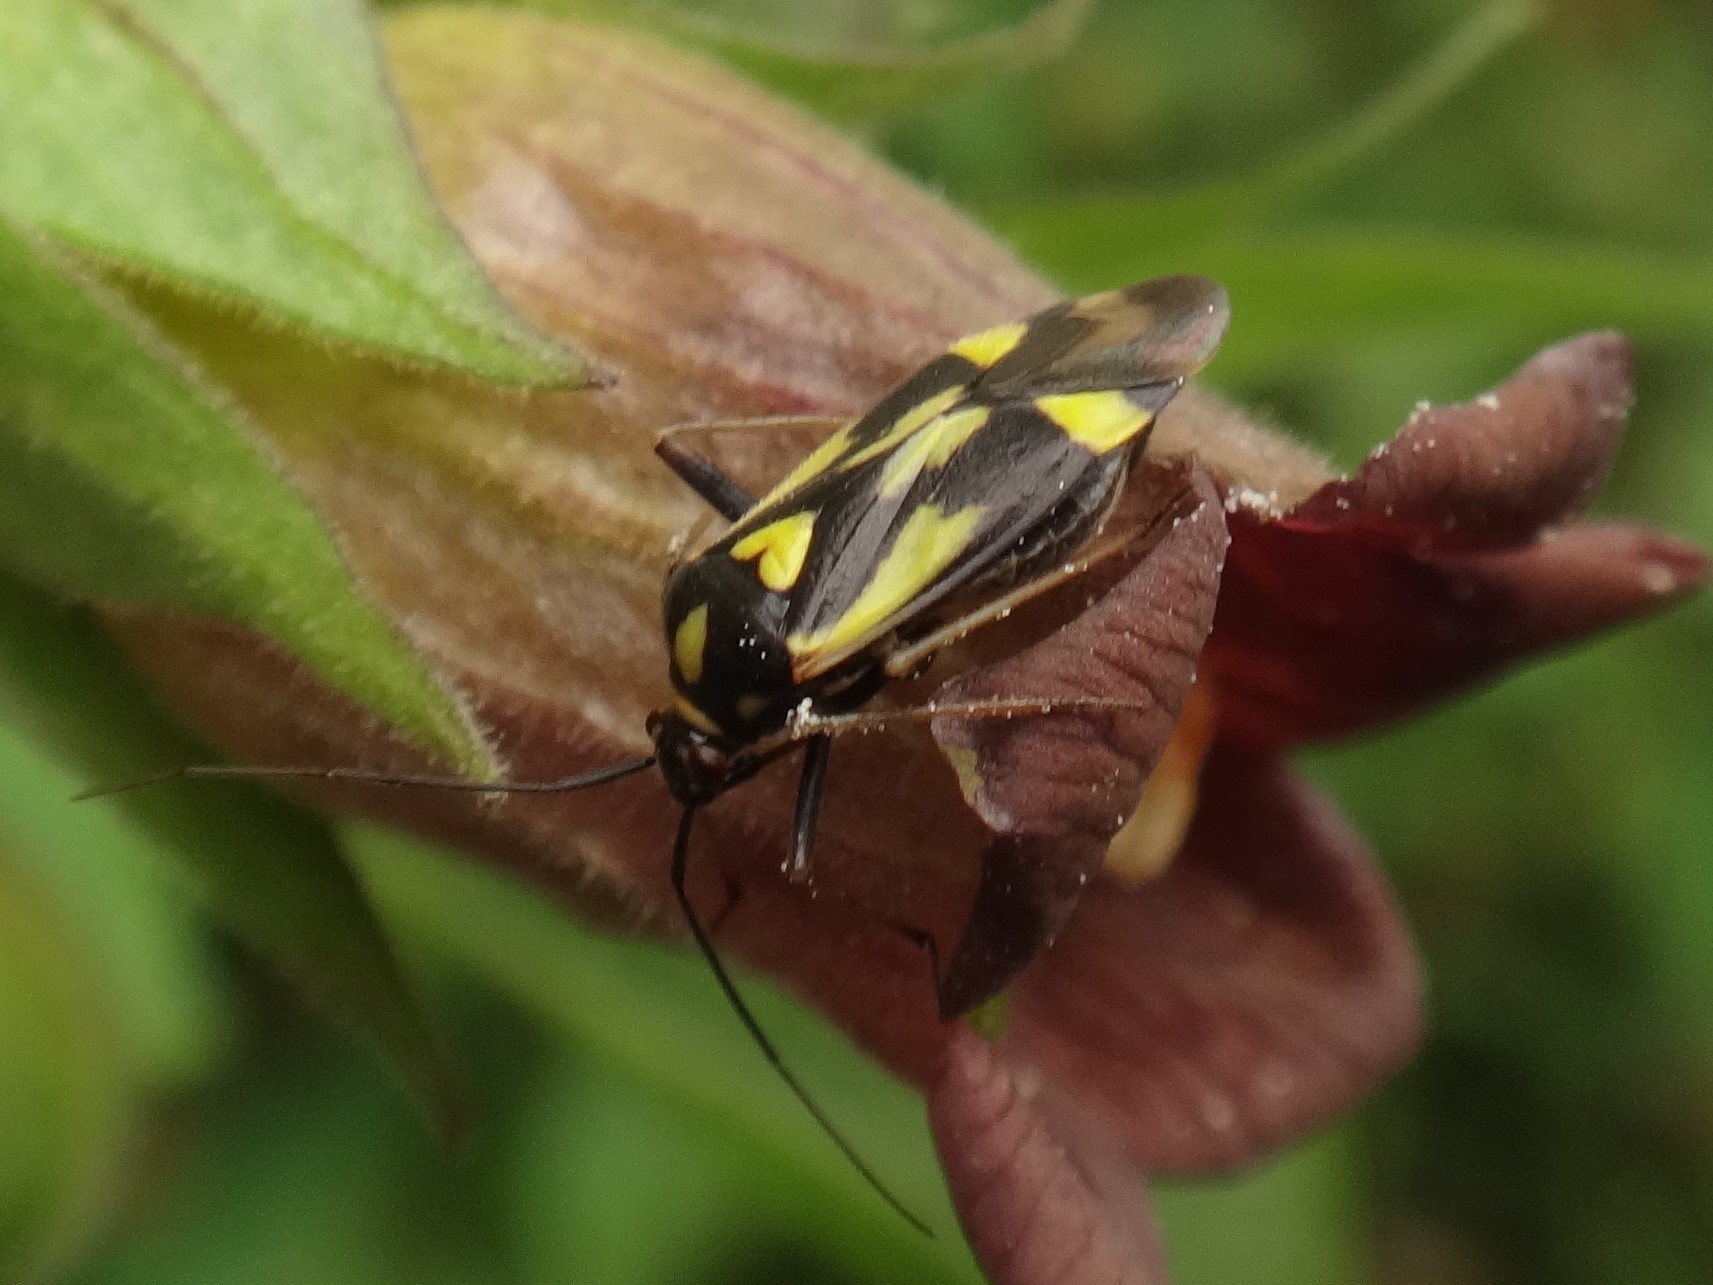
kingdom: Animalia
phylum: Arthropoda
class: Insecta
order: Hemiptera
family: Miridae
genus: Grypocoris
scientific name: Grypocoris sexguttatus
